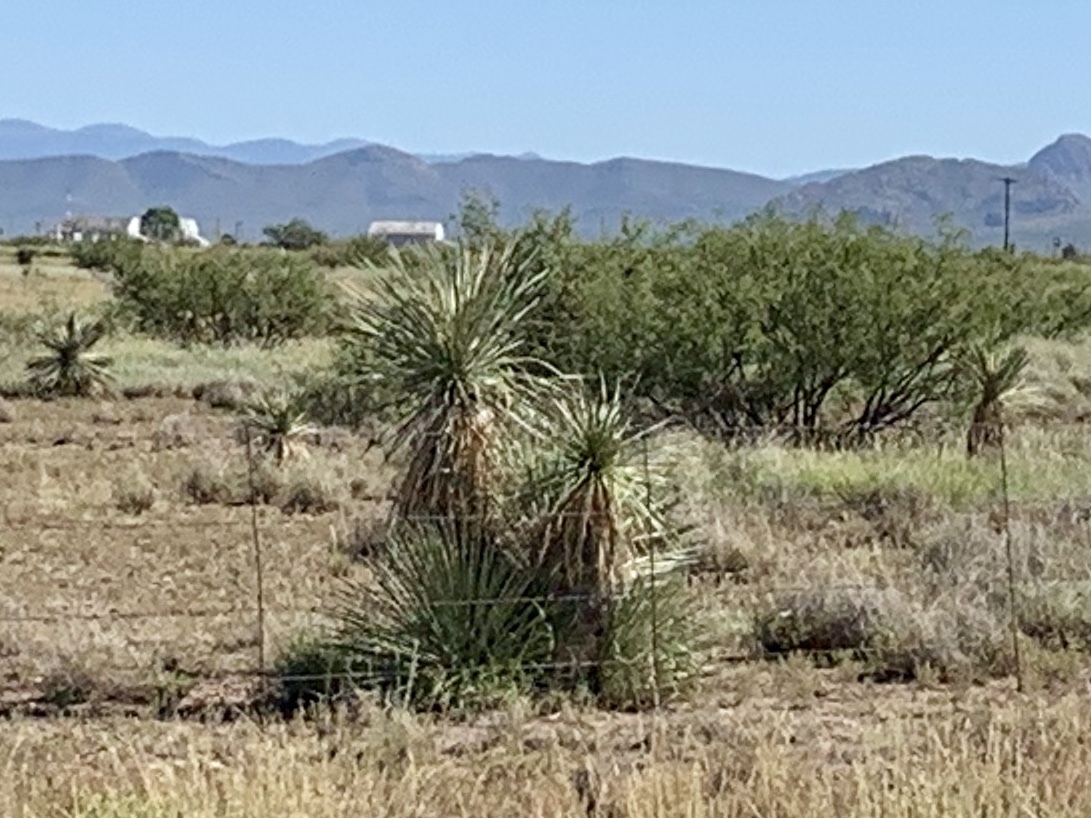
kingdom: Plantae
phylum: Tracheophyta
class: Liliopsida
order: Asparagales
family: Asparagaceae
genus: Yucca
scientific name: Yucca elata
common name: Palmella
